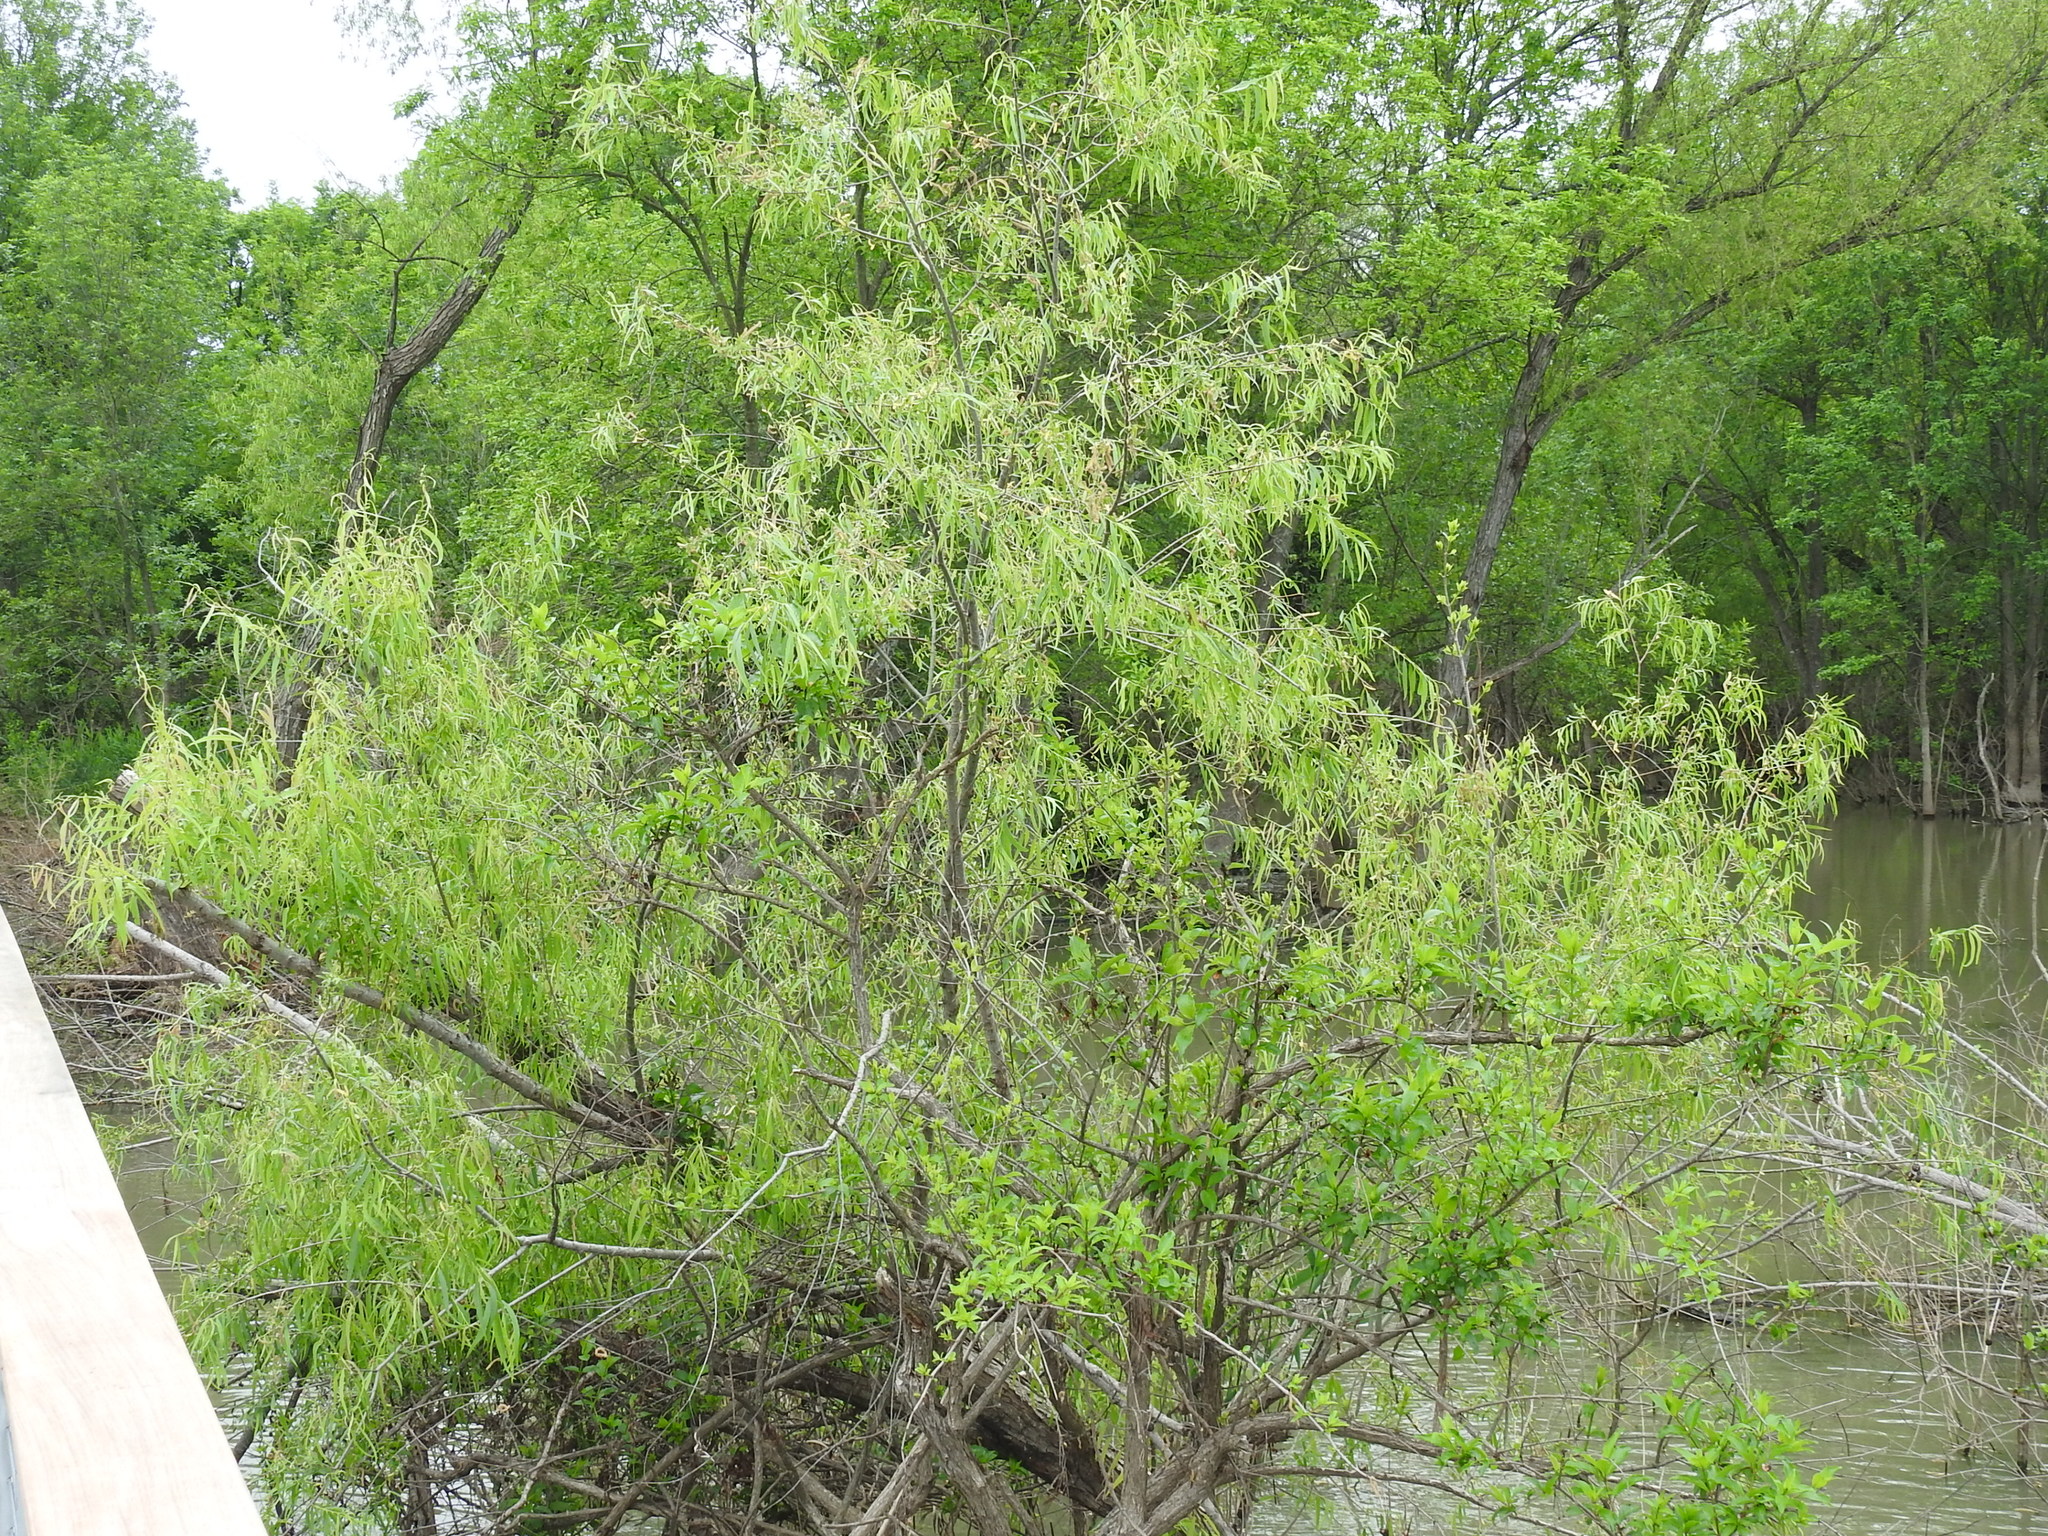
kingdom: Plantae
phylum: Tracheophyta
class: Magnoliopsida
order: Malpighiales
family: Salicaceae
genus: Salix
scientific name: Salix nigra
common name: Black willow
